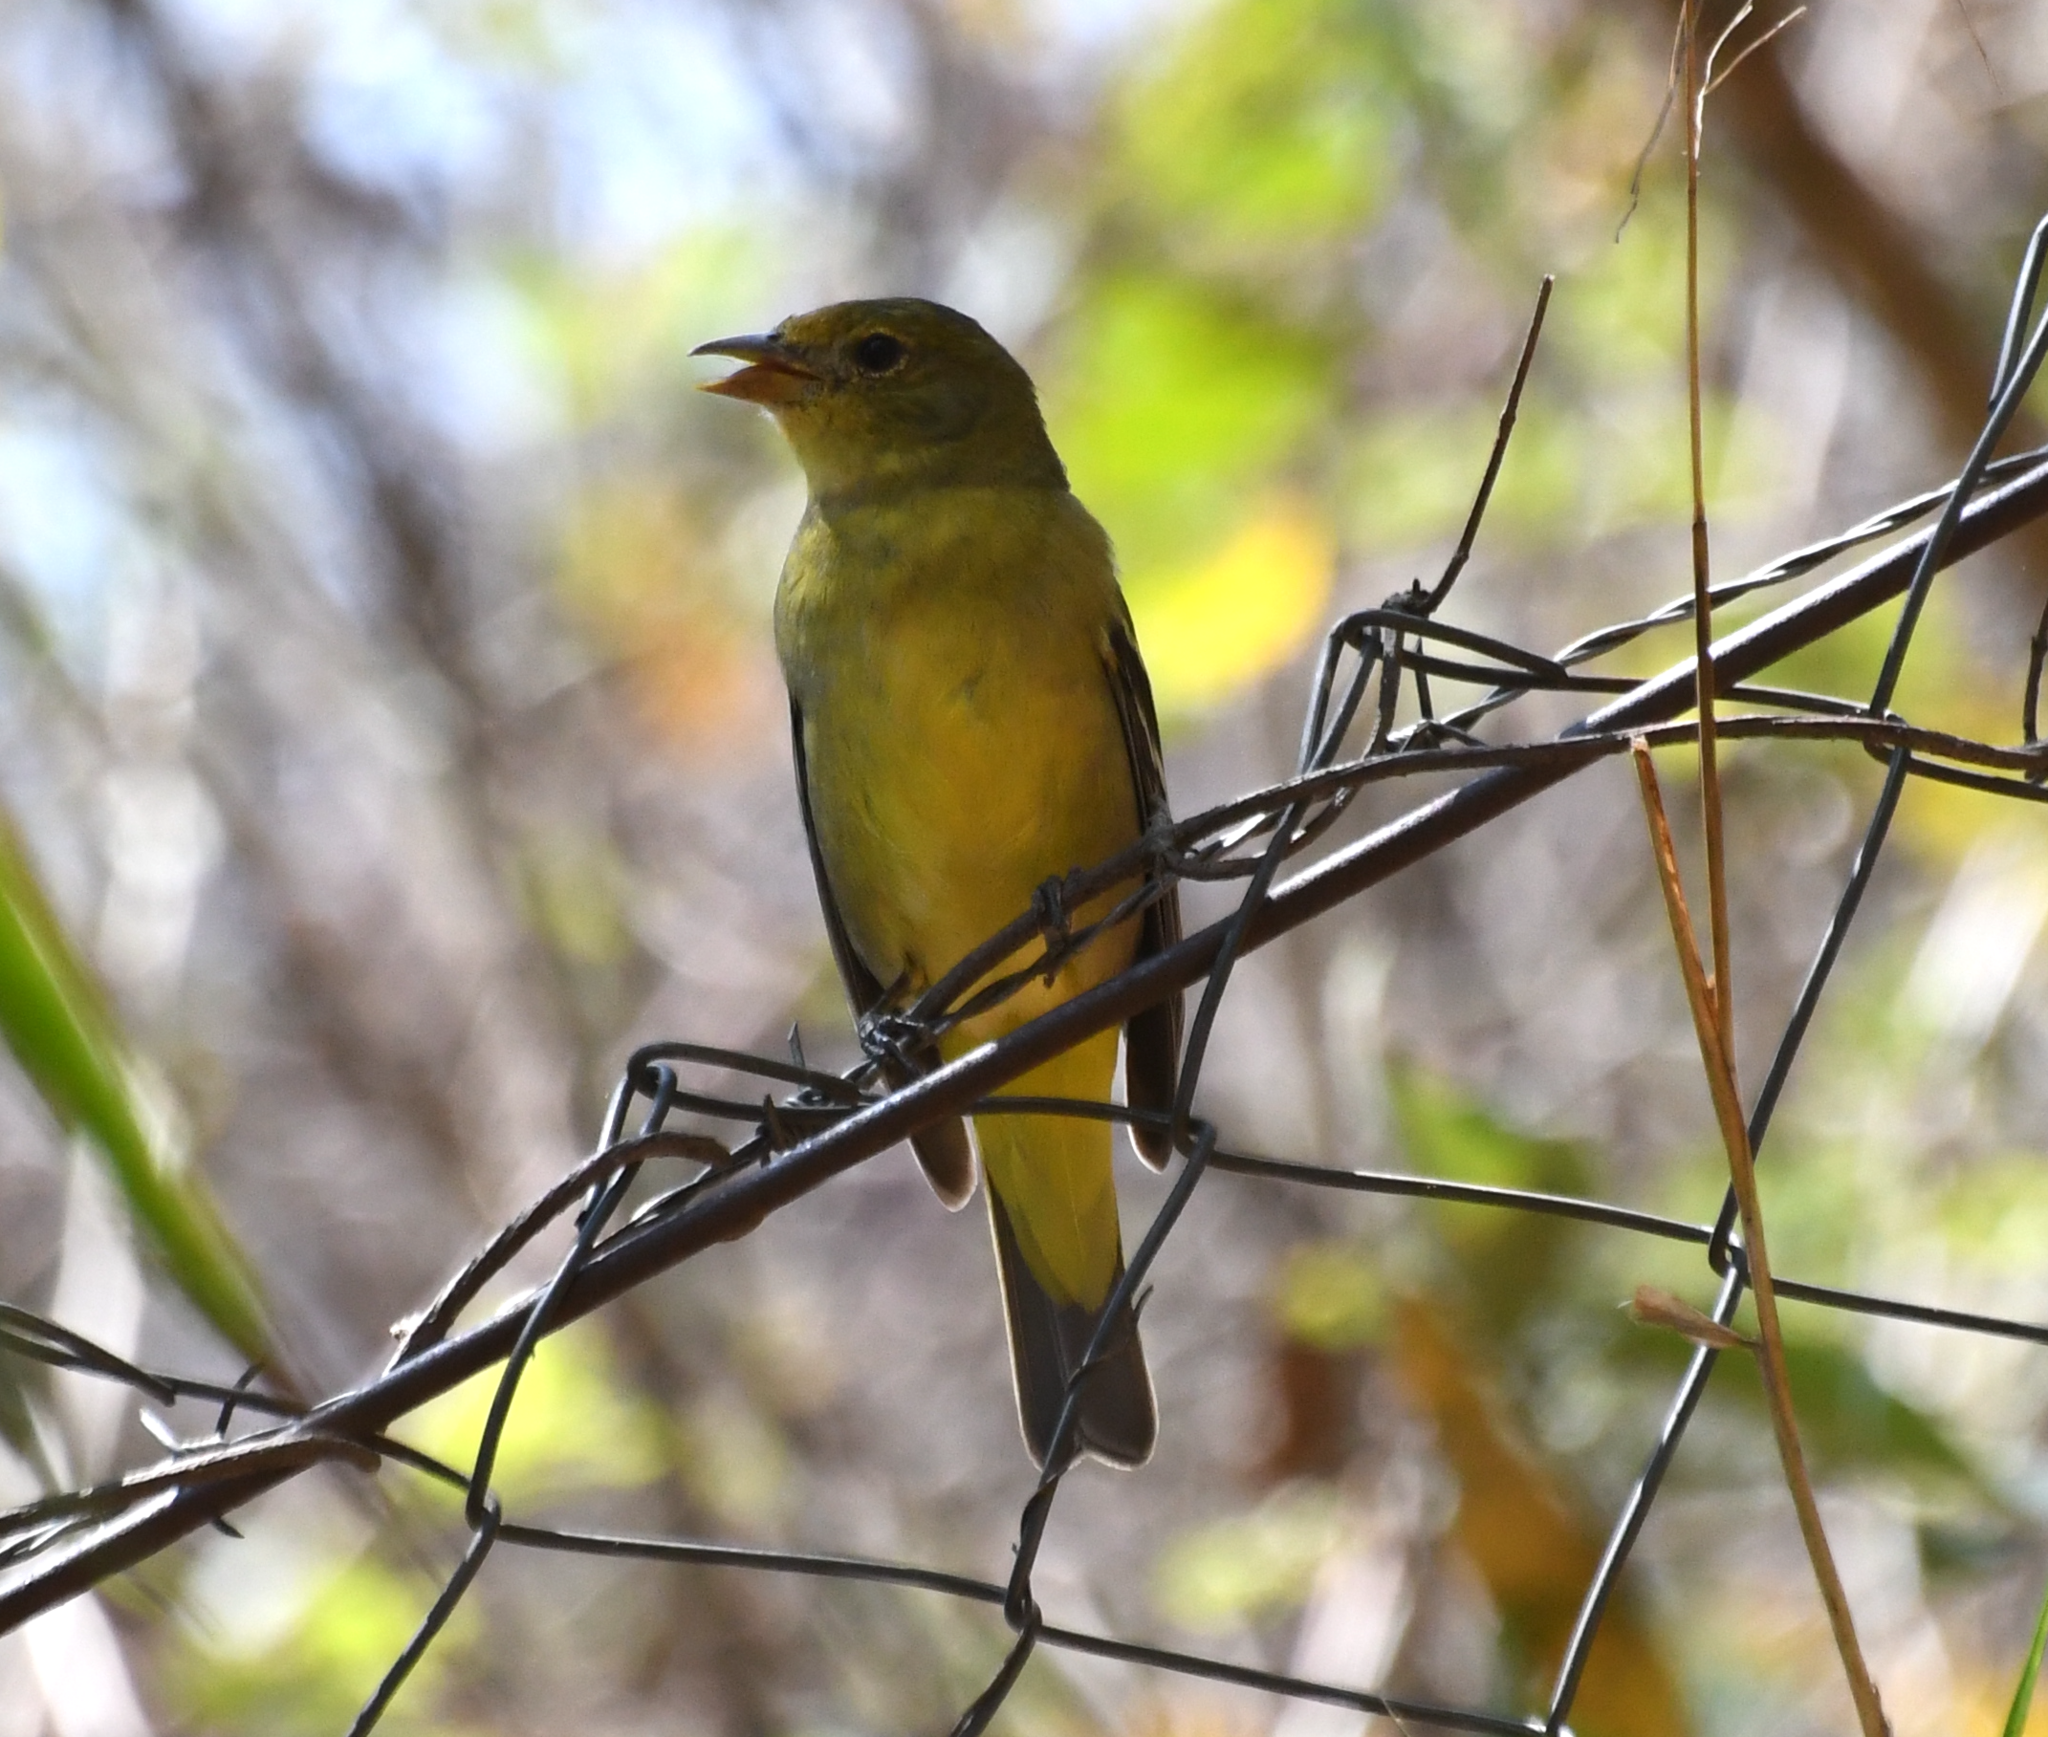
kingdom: Animalia
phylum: Chordata
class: Aves
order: Passeriformes
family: Cardinalidae
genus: Piranga
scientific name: Piranga ludoviciana
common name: Western tanager
